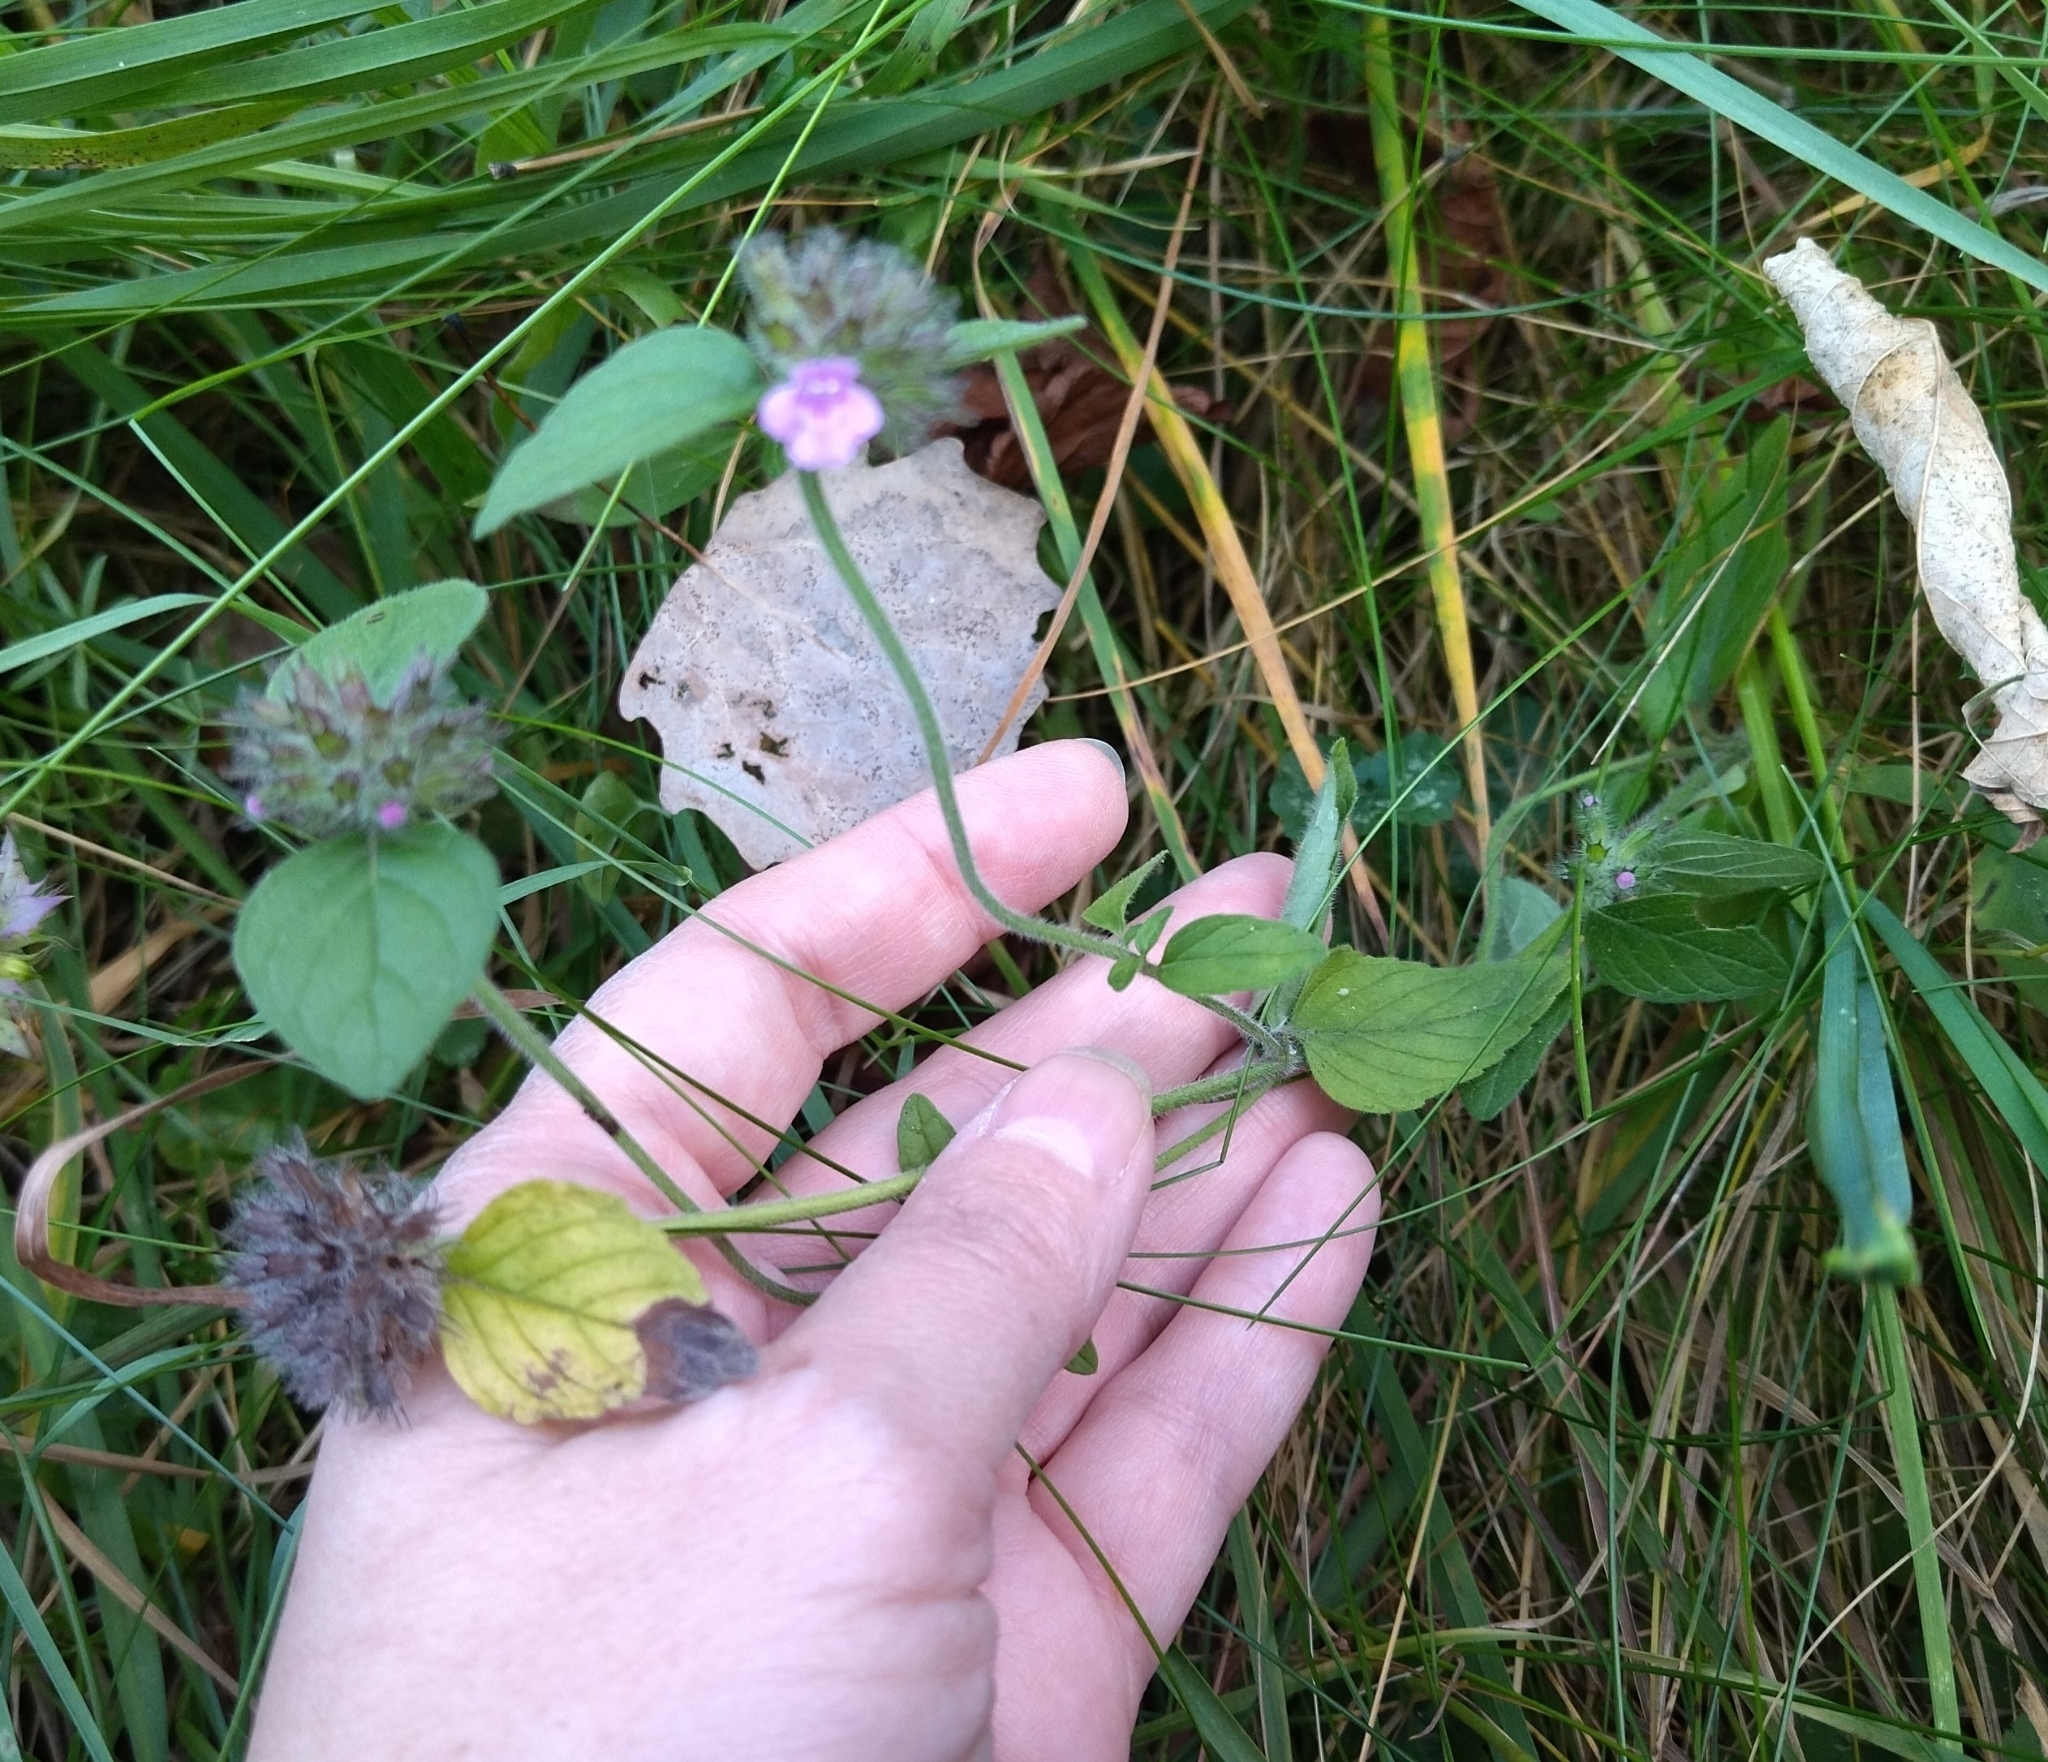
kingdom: Plantae
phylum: Tracheophyta
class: Magnoliopsida
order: Lamiales
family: Lamiaceae
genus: Clinopodium
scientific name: Clinopodium vulgare
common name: Wild basil
